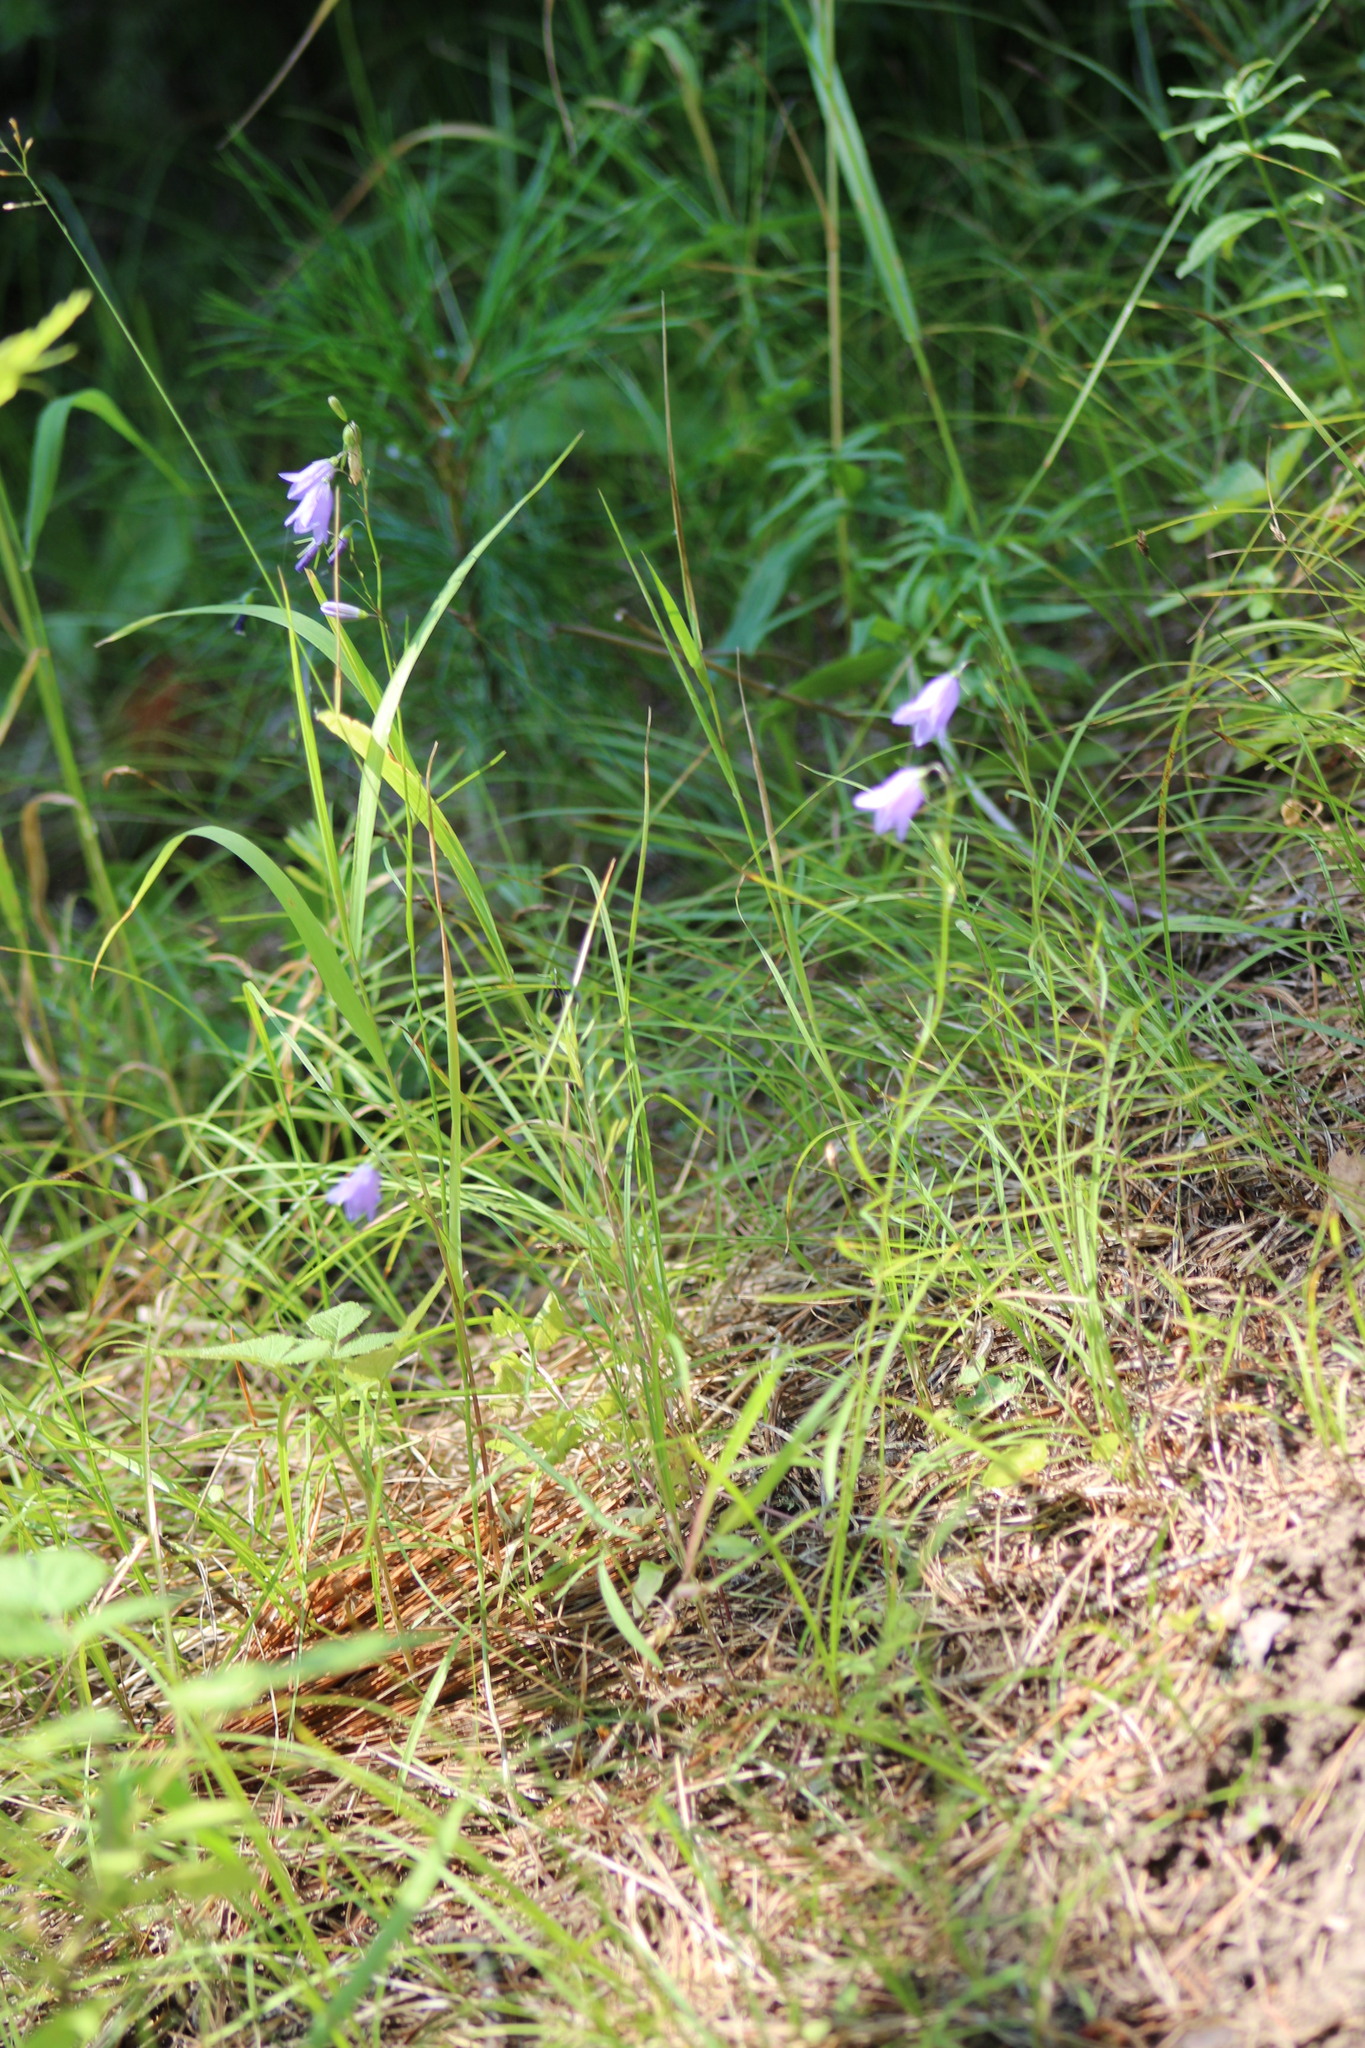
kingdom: Plantae
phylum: Tracheophyta
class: Magnoliopsida
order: Asterales
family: Campanulaceae
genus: Campanula
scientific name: Campanula rotundifolia
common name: Harebell
